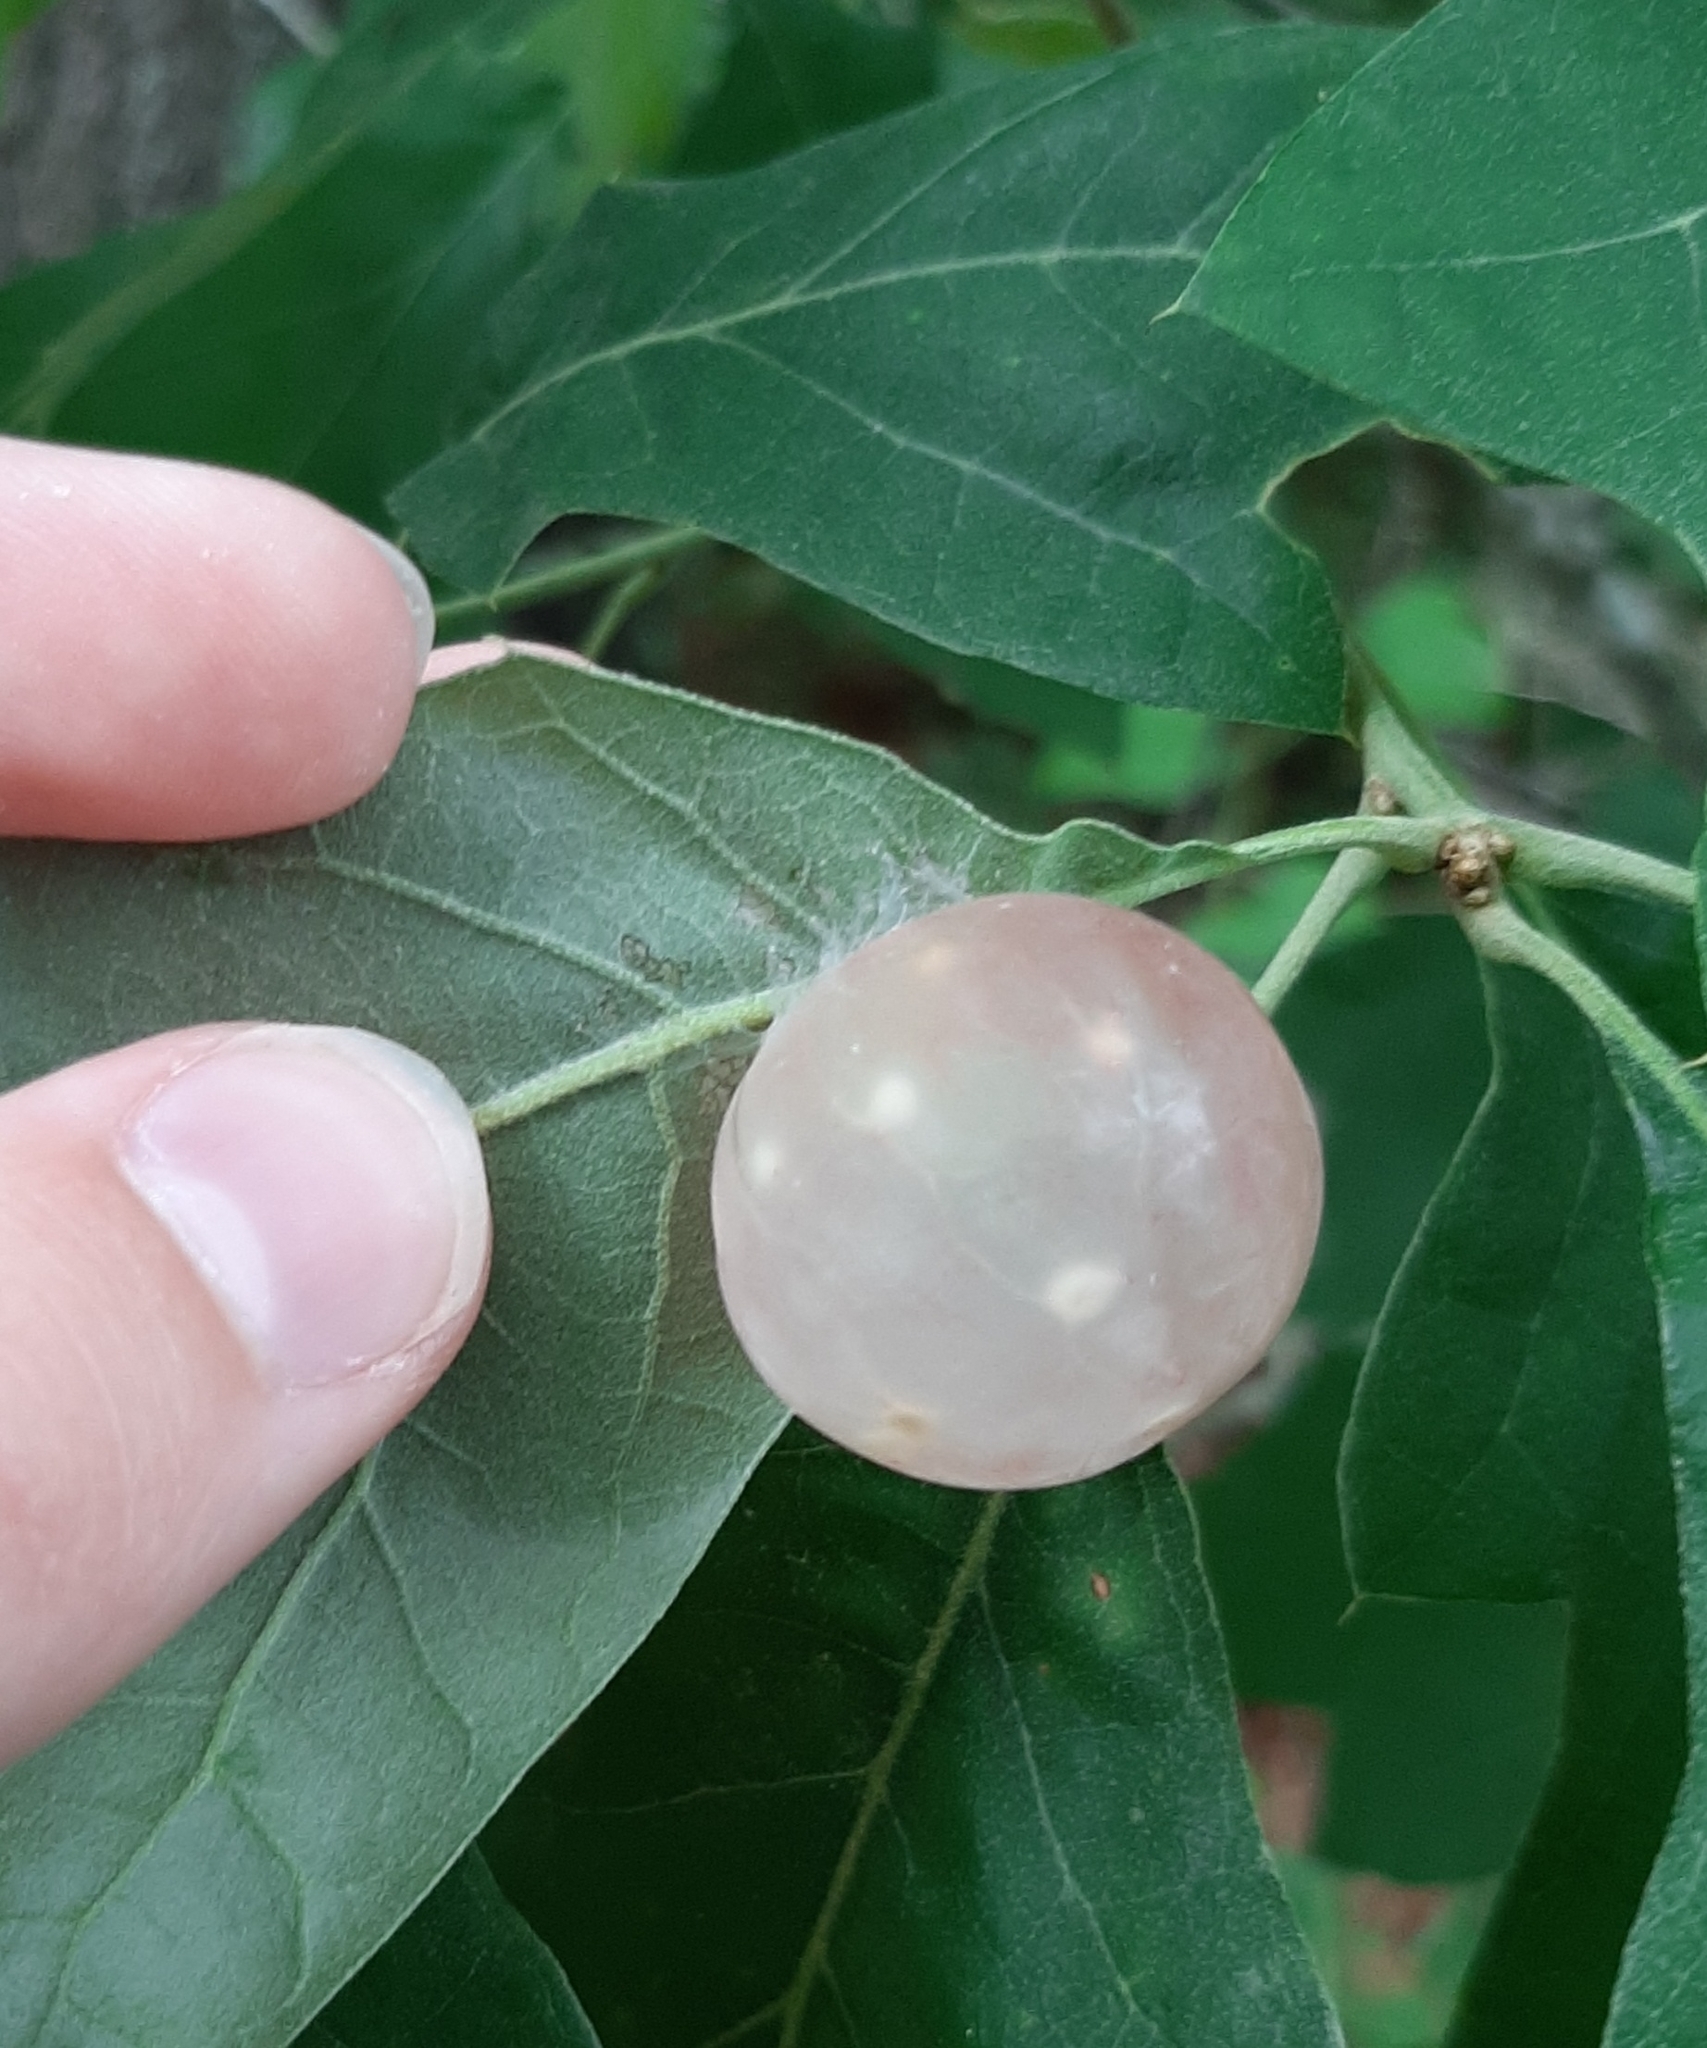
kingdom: Animalia
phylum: Arthropoda
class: Insecta
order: Hymenoptera
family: Cynipidae
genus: Amphibolips
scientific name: Amphibolips
